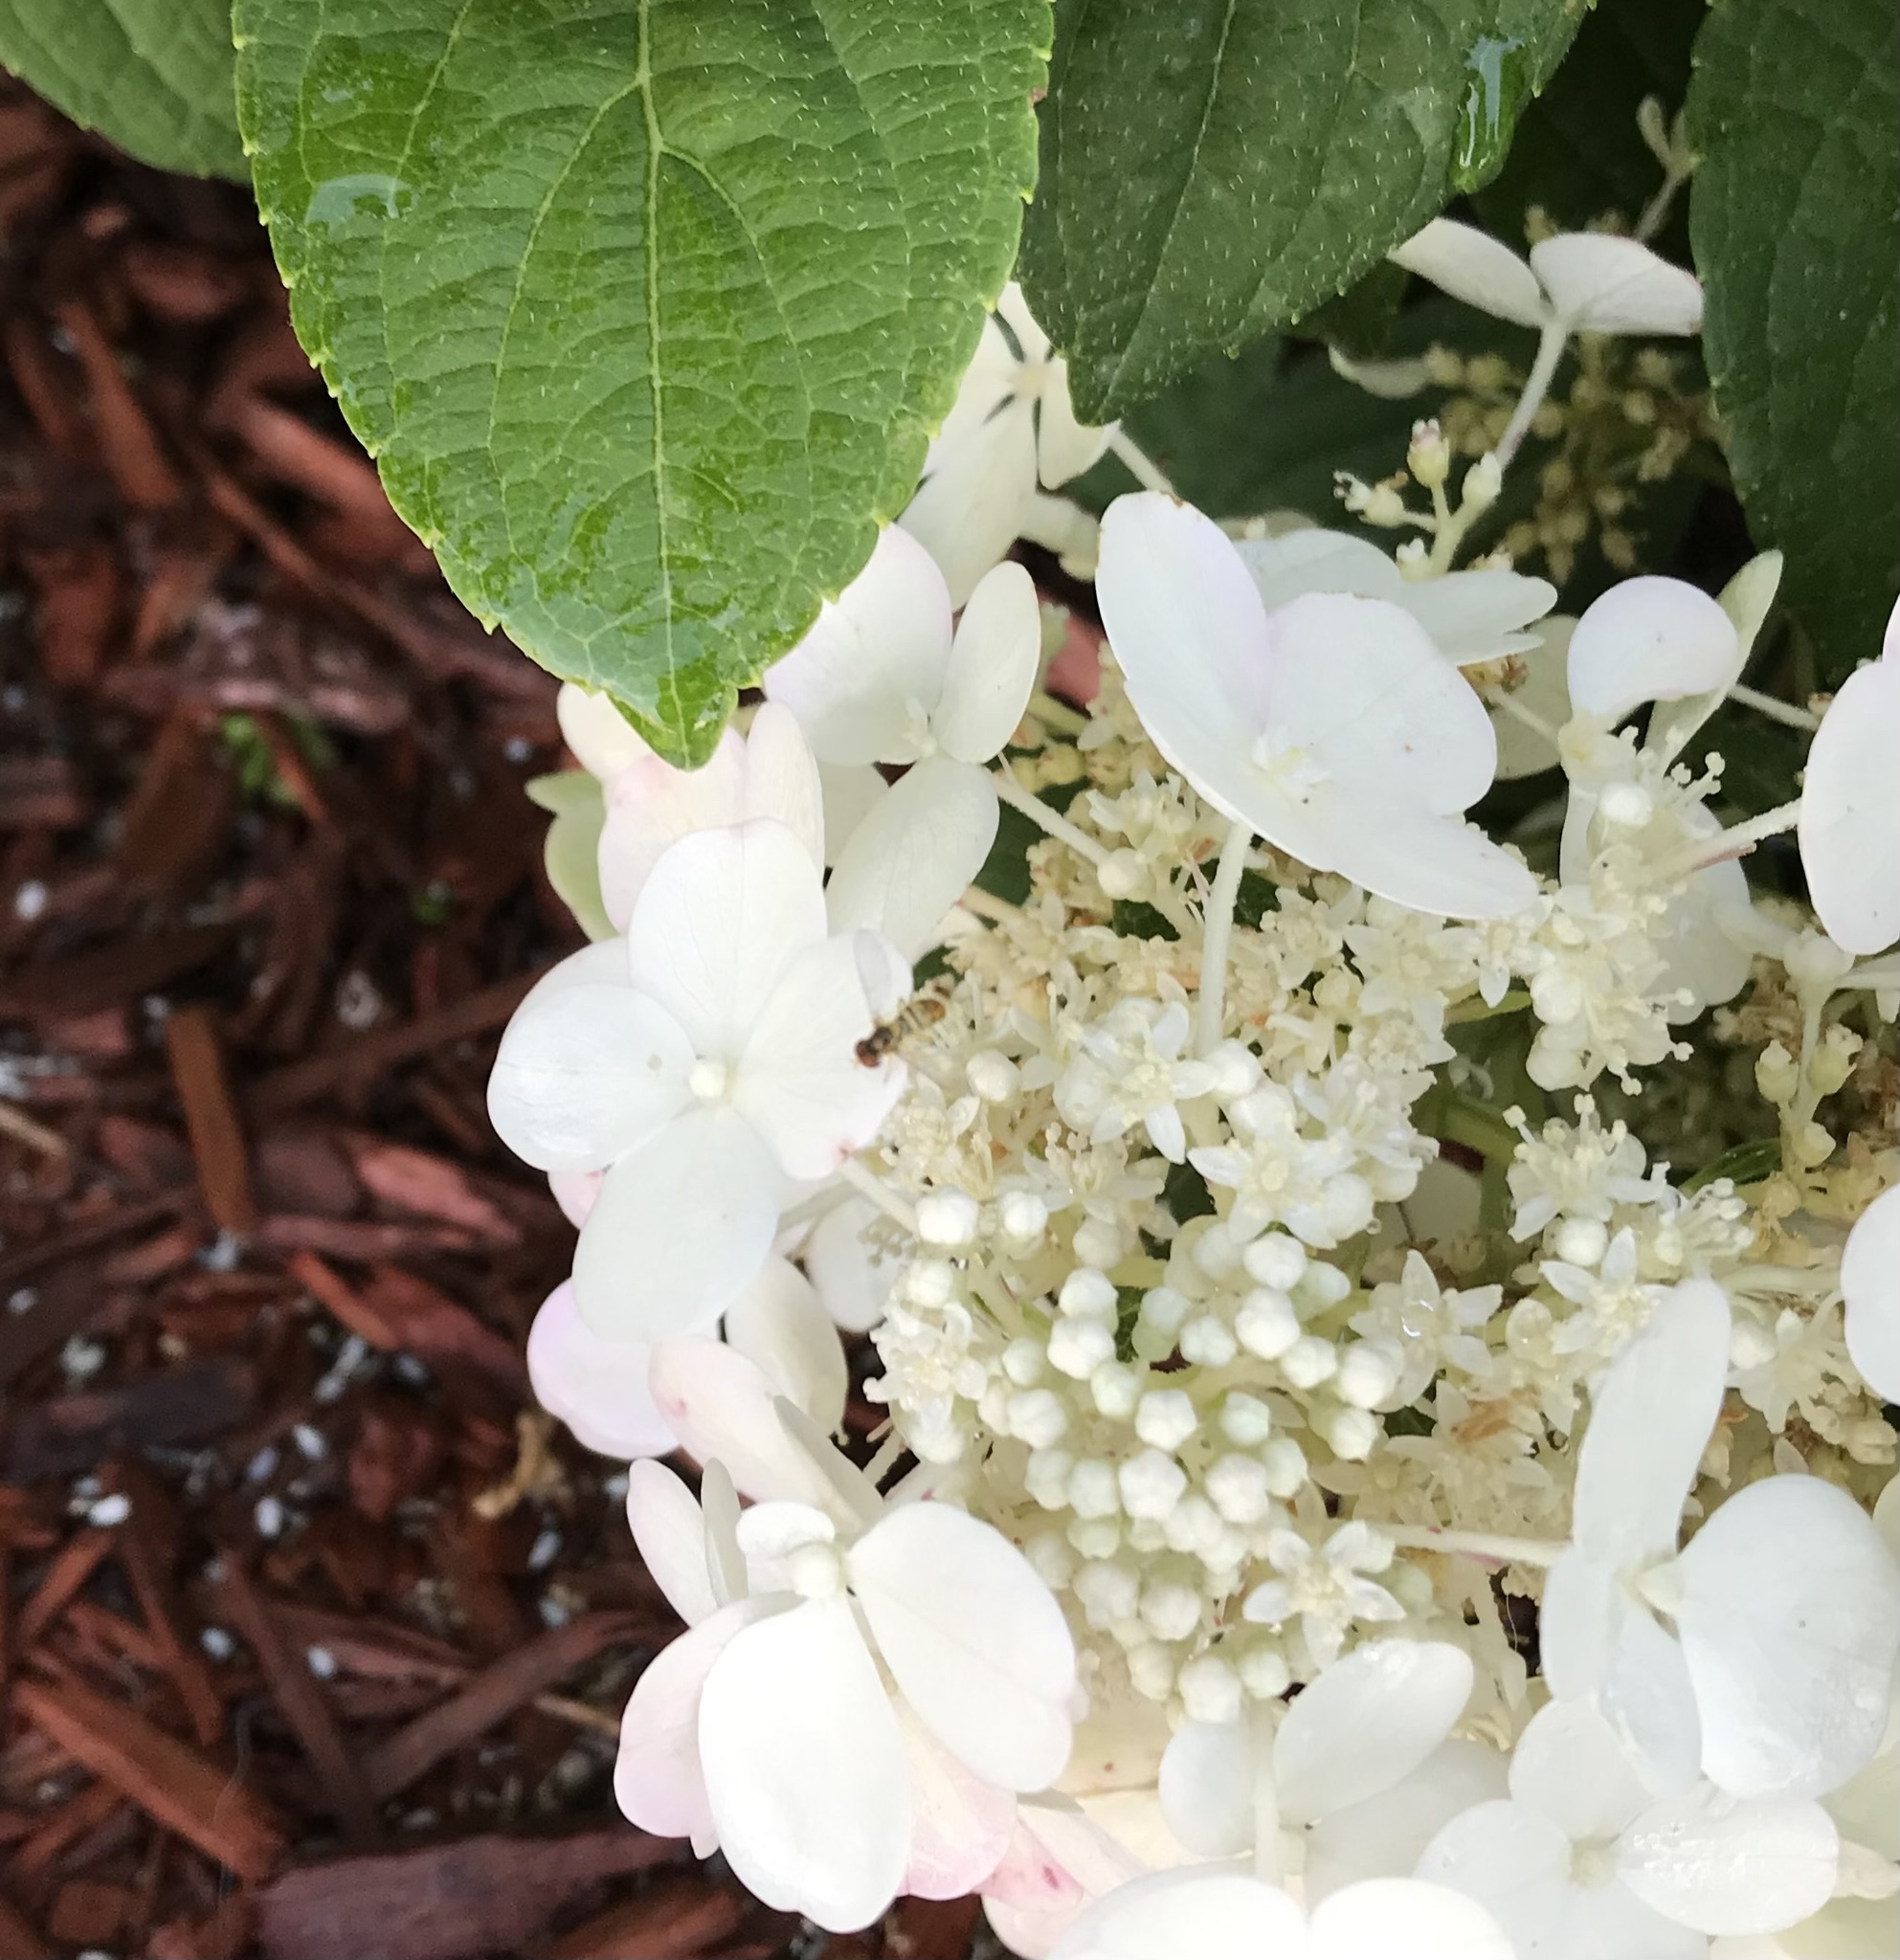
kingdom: Animalia
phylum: Arthropoda
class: Insecta
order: Diptera
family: Syrphidae
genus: Toxomerus
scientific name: Toxomerus marginatus
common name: Syrphid fly
